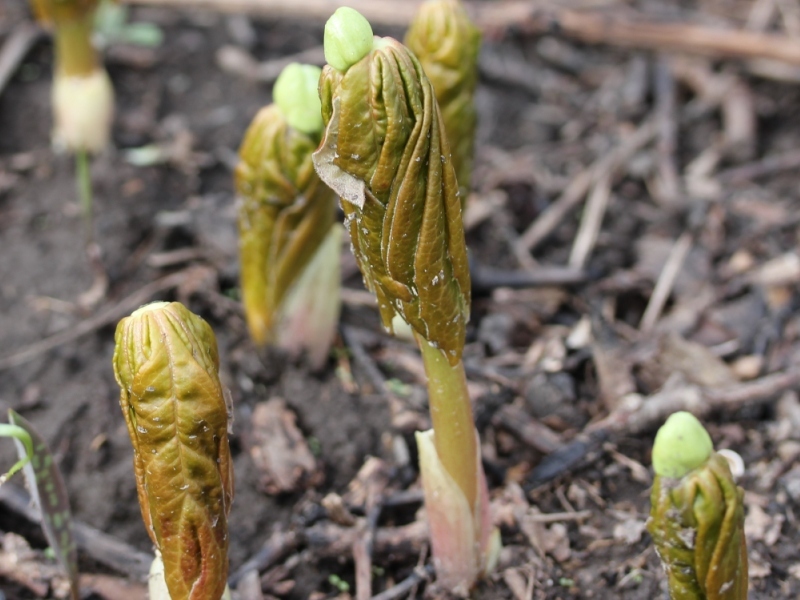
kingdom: Plantae
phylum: Tracheophyta
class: Magnoliopsida
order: Ranunculales
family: Berberidaceae
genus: Podophyllum
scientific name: Podophyllum peltatum
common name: Wild mandrake
